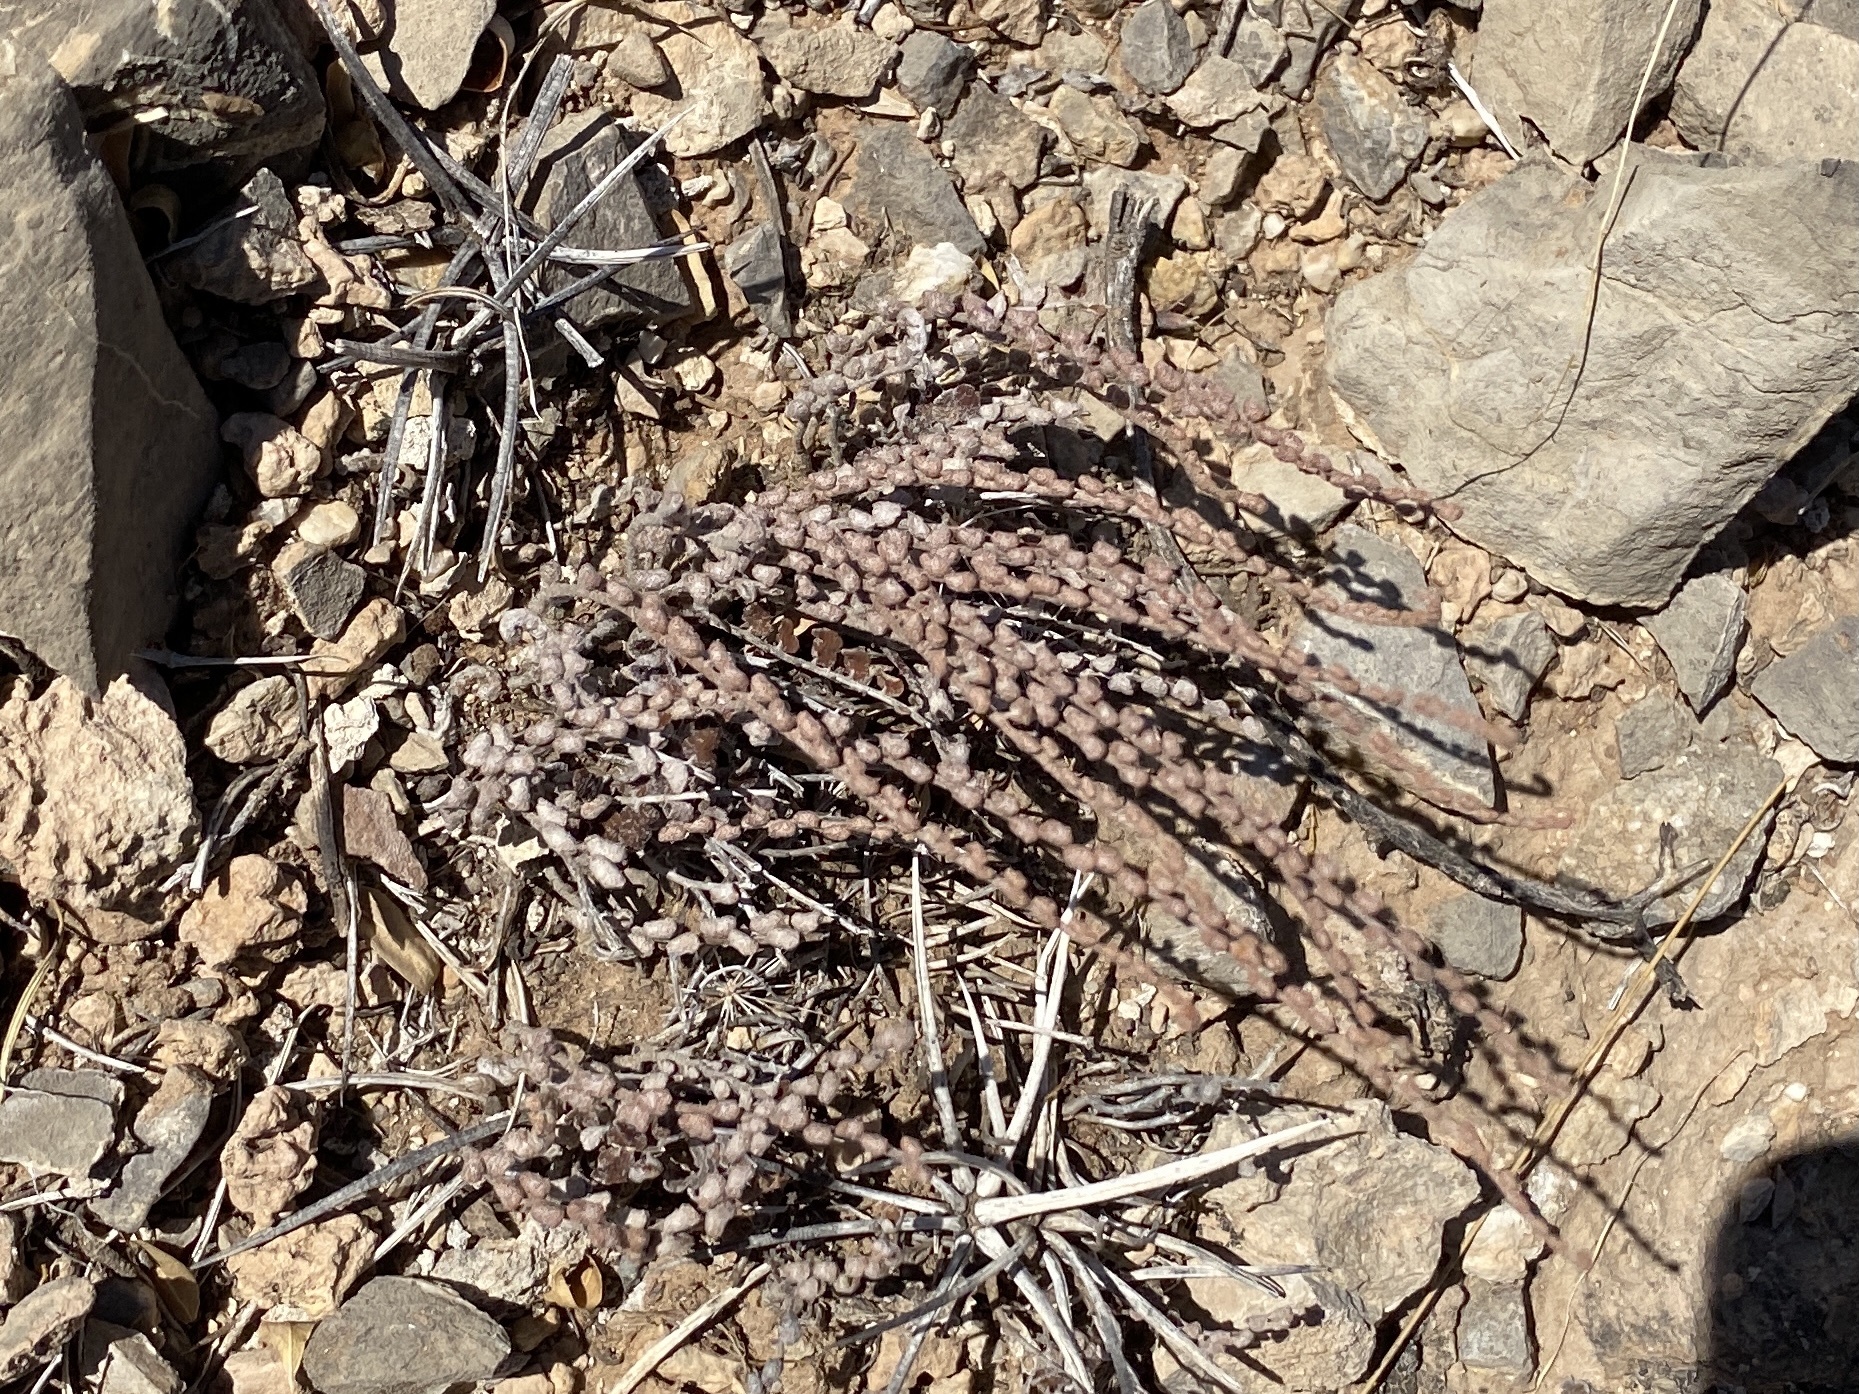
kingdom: Plantae
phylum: Tracheophyta
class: Polypodiopsida
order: Polypodiales
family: Pteridaceae
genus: Astrolepis
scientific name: Astrolepis cochisensis
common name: Scaly cloak fern
